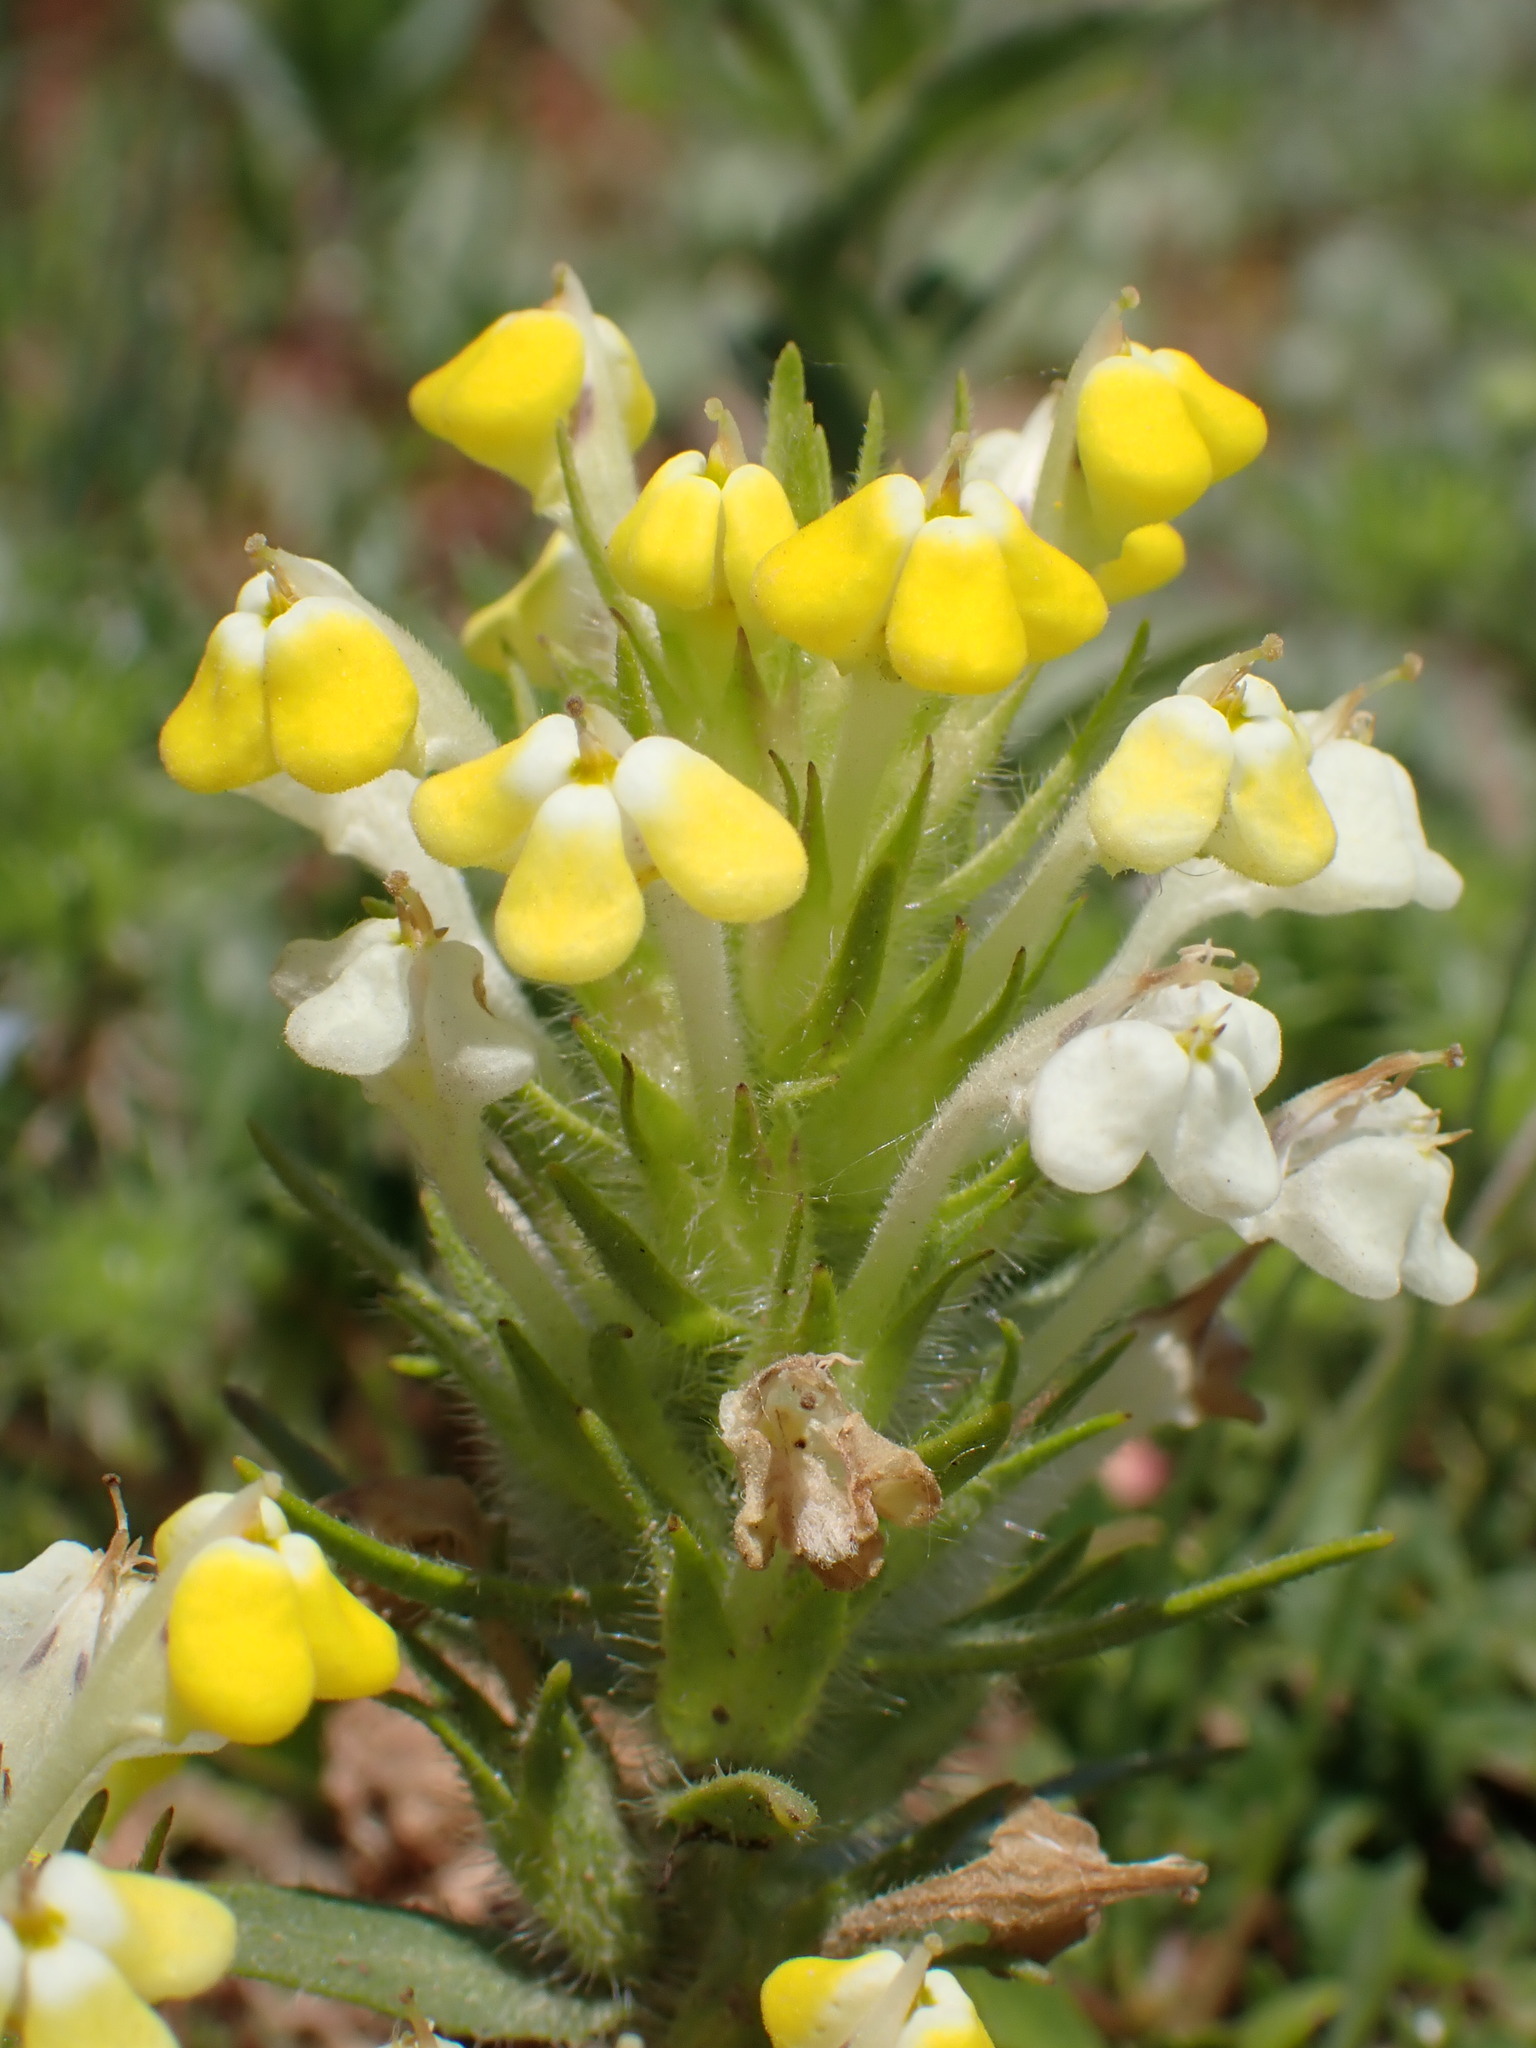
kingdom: Plantae
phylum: Tracheophyta
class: Magnoliopsida
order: Lamiales
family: Orobanchaceae
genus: Castilleja
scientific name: Castilleja campestris
